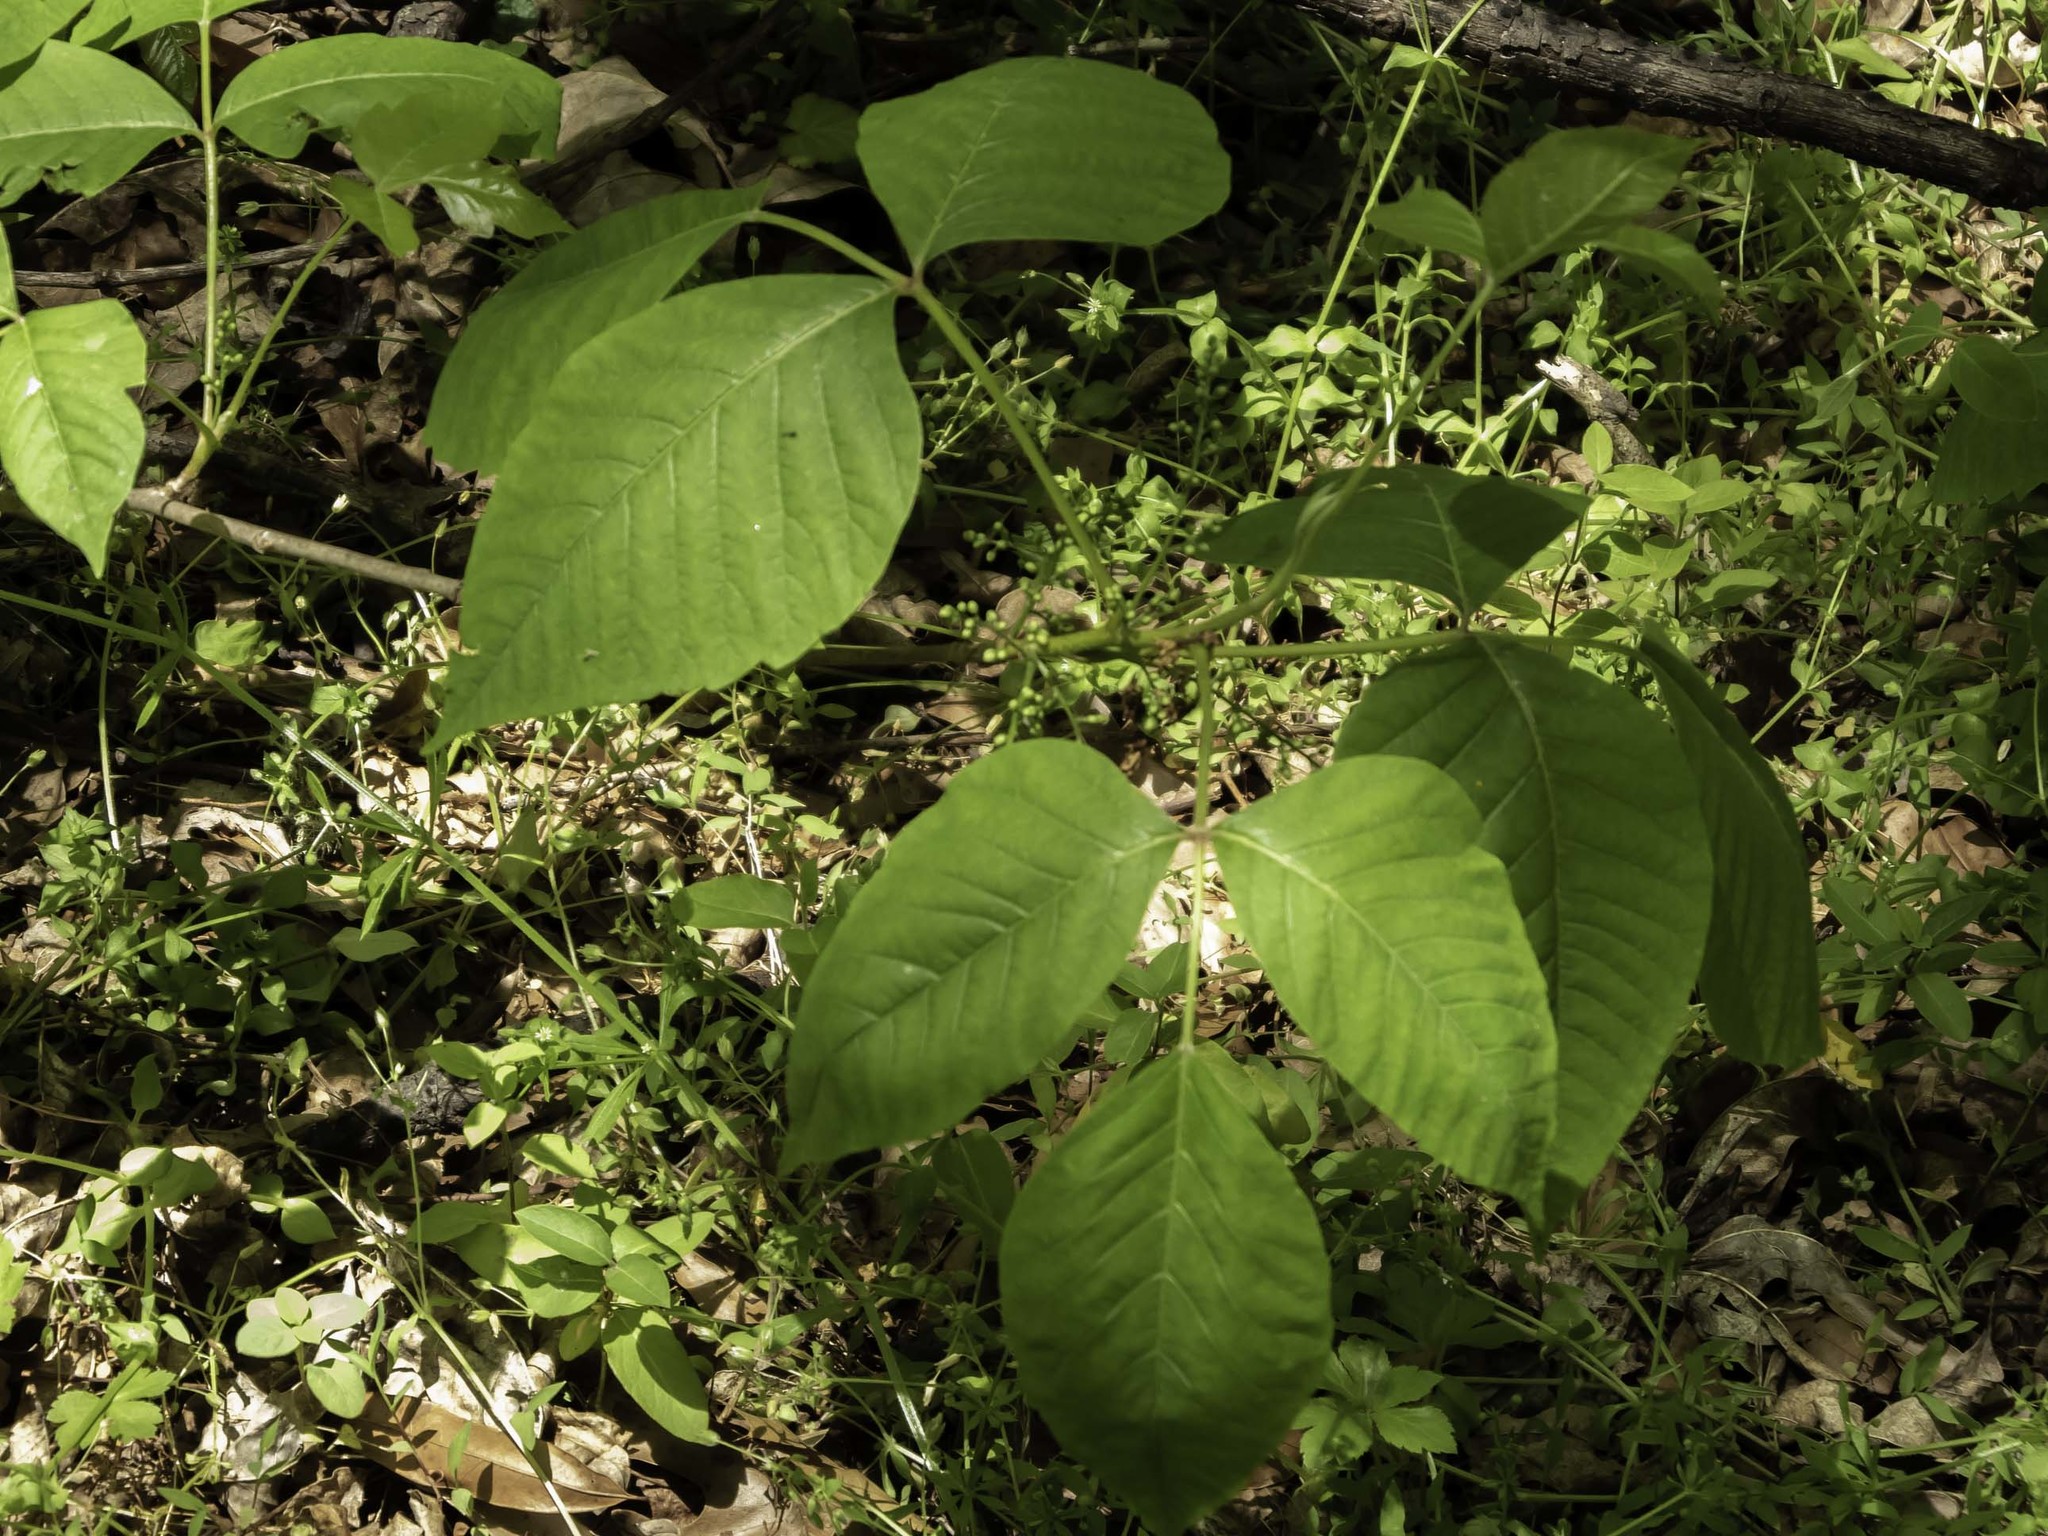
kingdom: Plantae
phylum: Tracheophyta
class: Magnoliopsida
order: Sapindales
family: Anacardiaceae
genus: Toxicodendron
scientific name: Toxicodendron radicans
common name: Poison ivy
